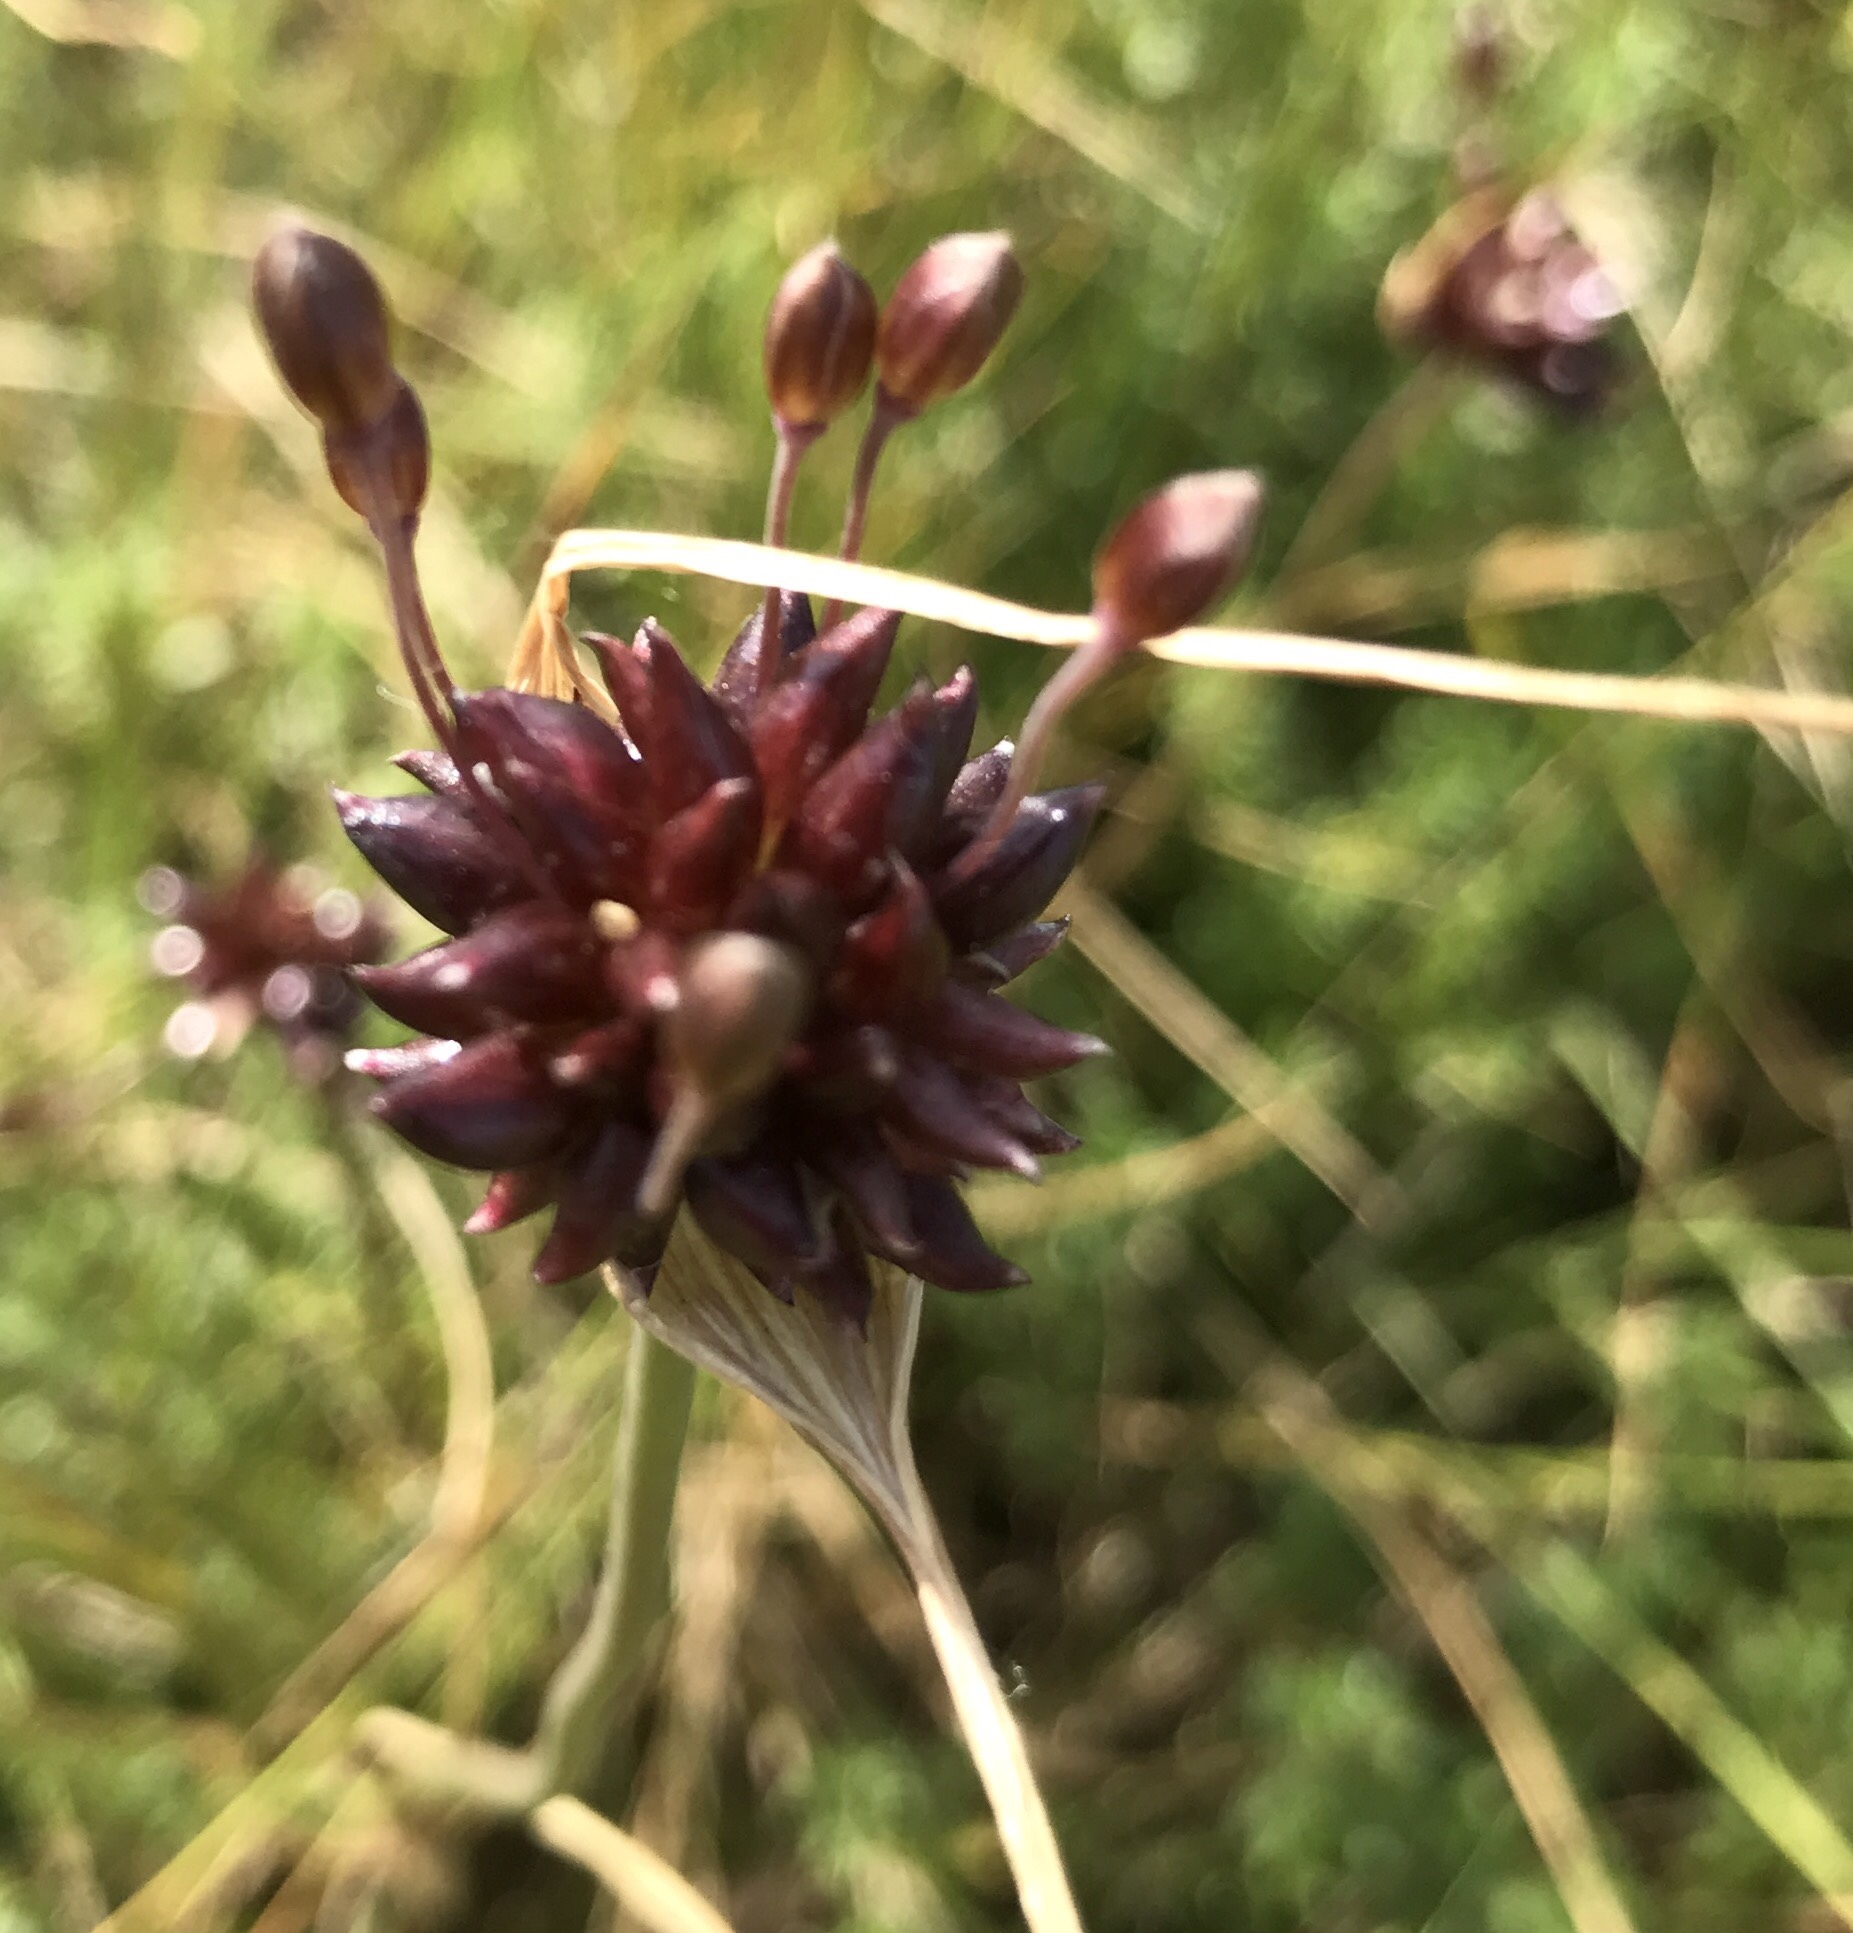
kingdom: Plantae
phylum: Tracheophyta
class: Liliopsida
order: Asparagales
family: Amaryllidaceae
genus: Allium
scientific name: Allium oleraceum
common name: Field garlic
